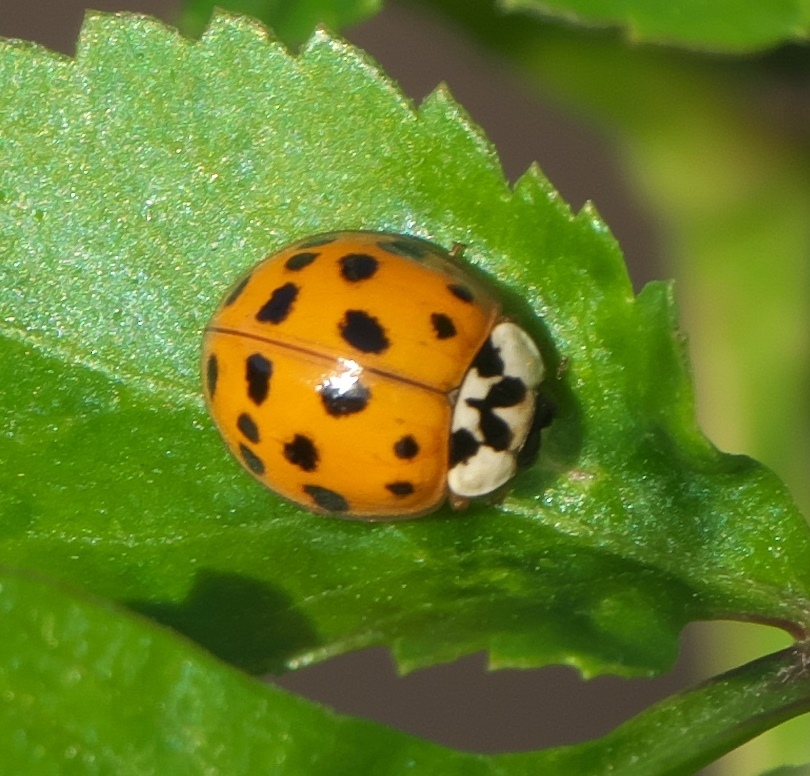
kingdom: Animalia
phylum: Arthropoda
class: Insecta
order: Coleoptera
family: Coccinellidae
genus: Harmonia
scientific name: Harmonia axyridis
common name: Harlequin ladybird
